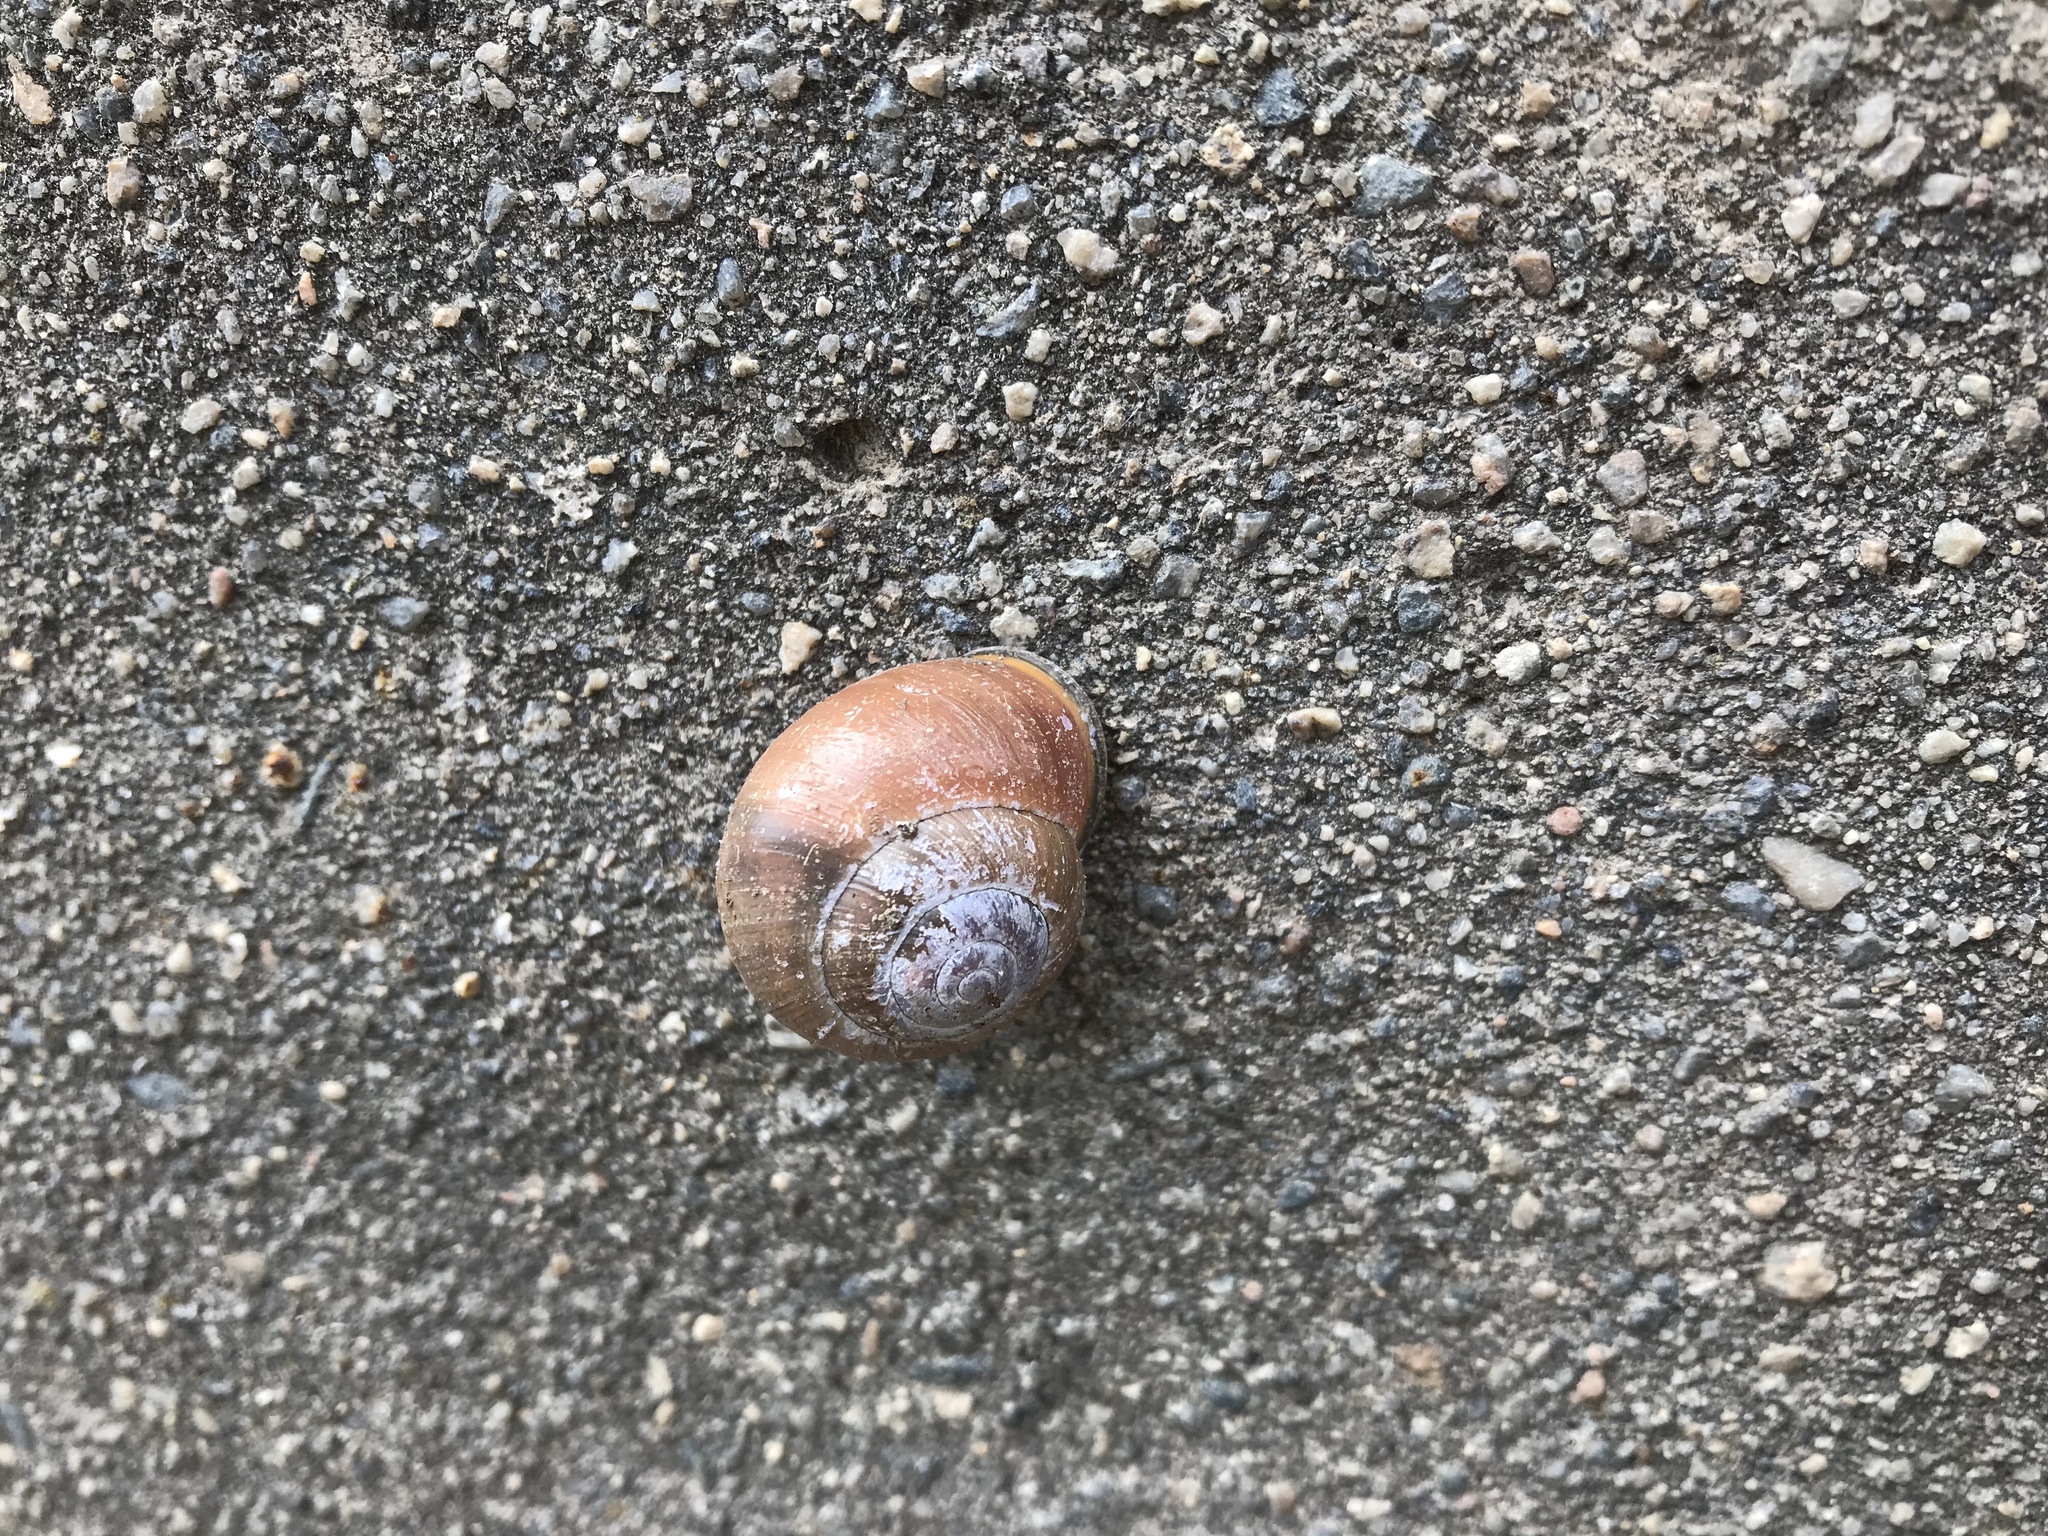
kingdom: Animalia
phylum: Mollusca
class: Gastropoda
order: Stylommatophora
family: Helicidae
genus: Cepaea
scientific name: Cepaea nemoralis
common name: Grovesnail
